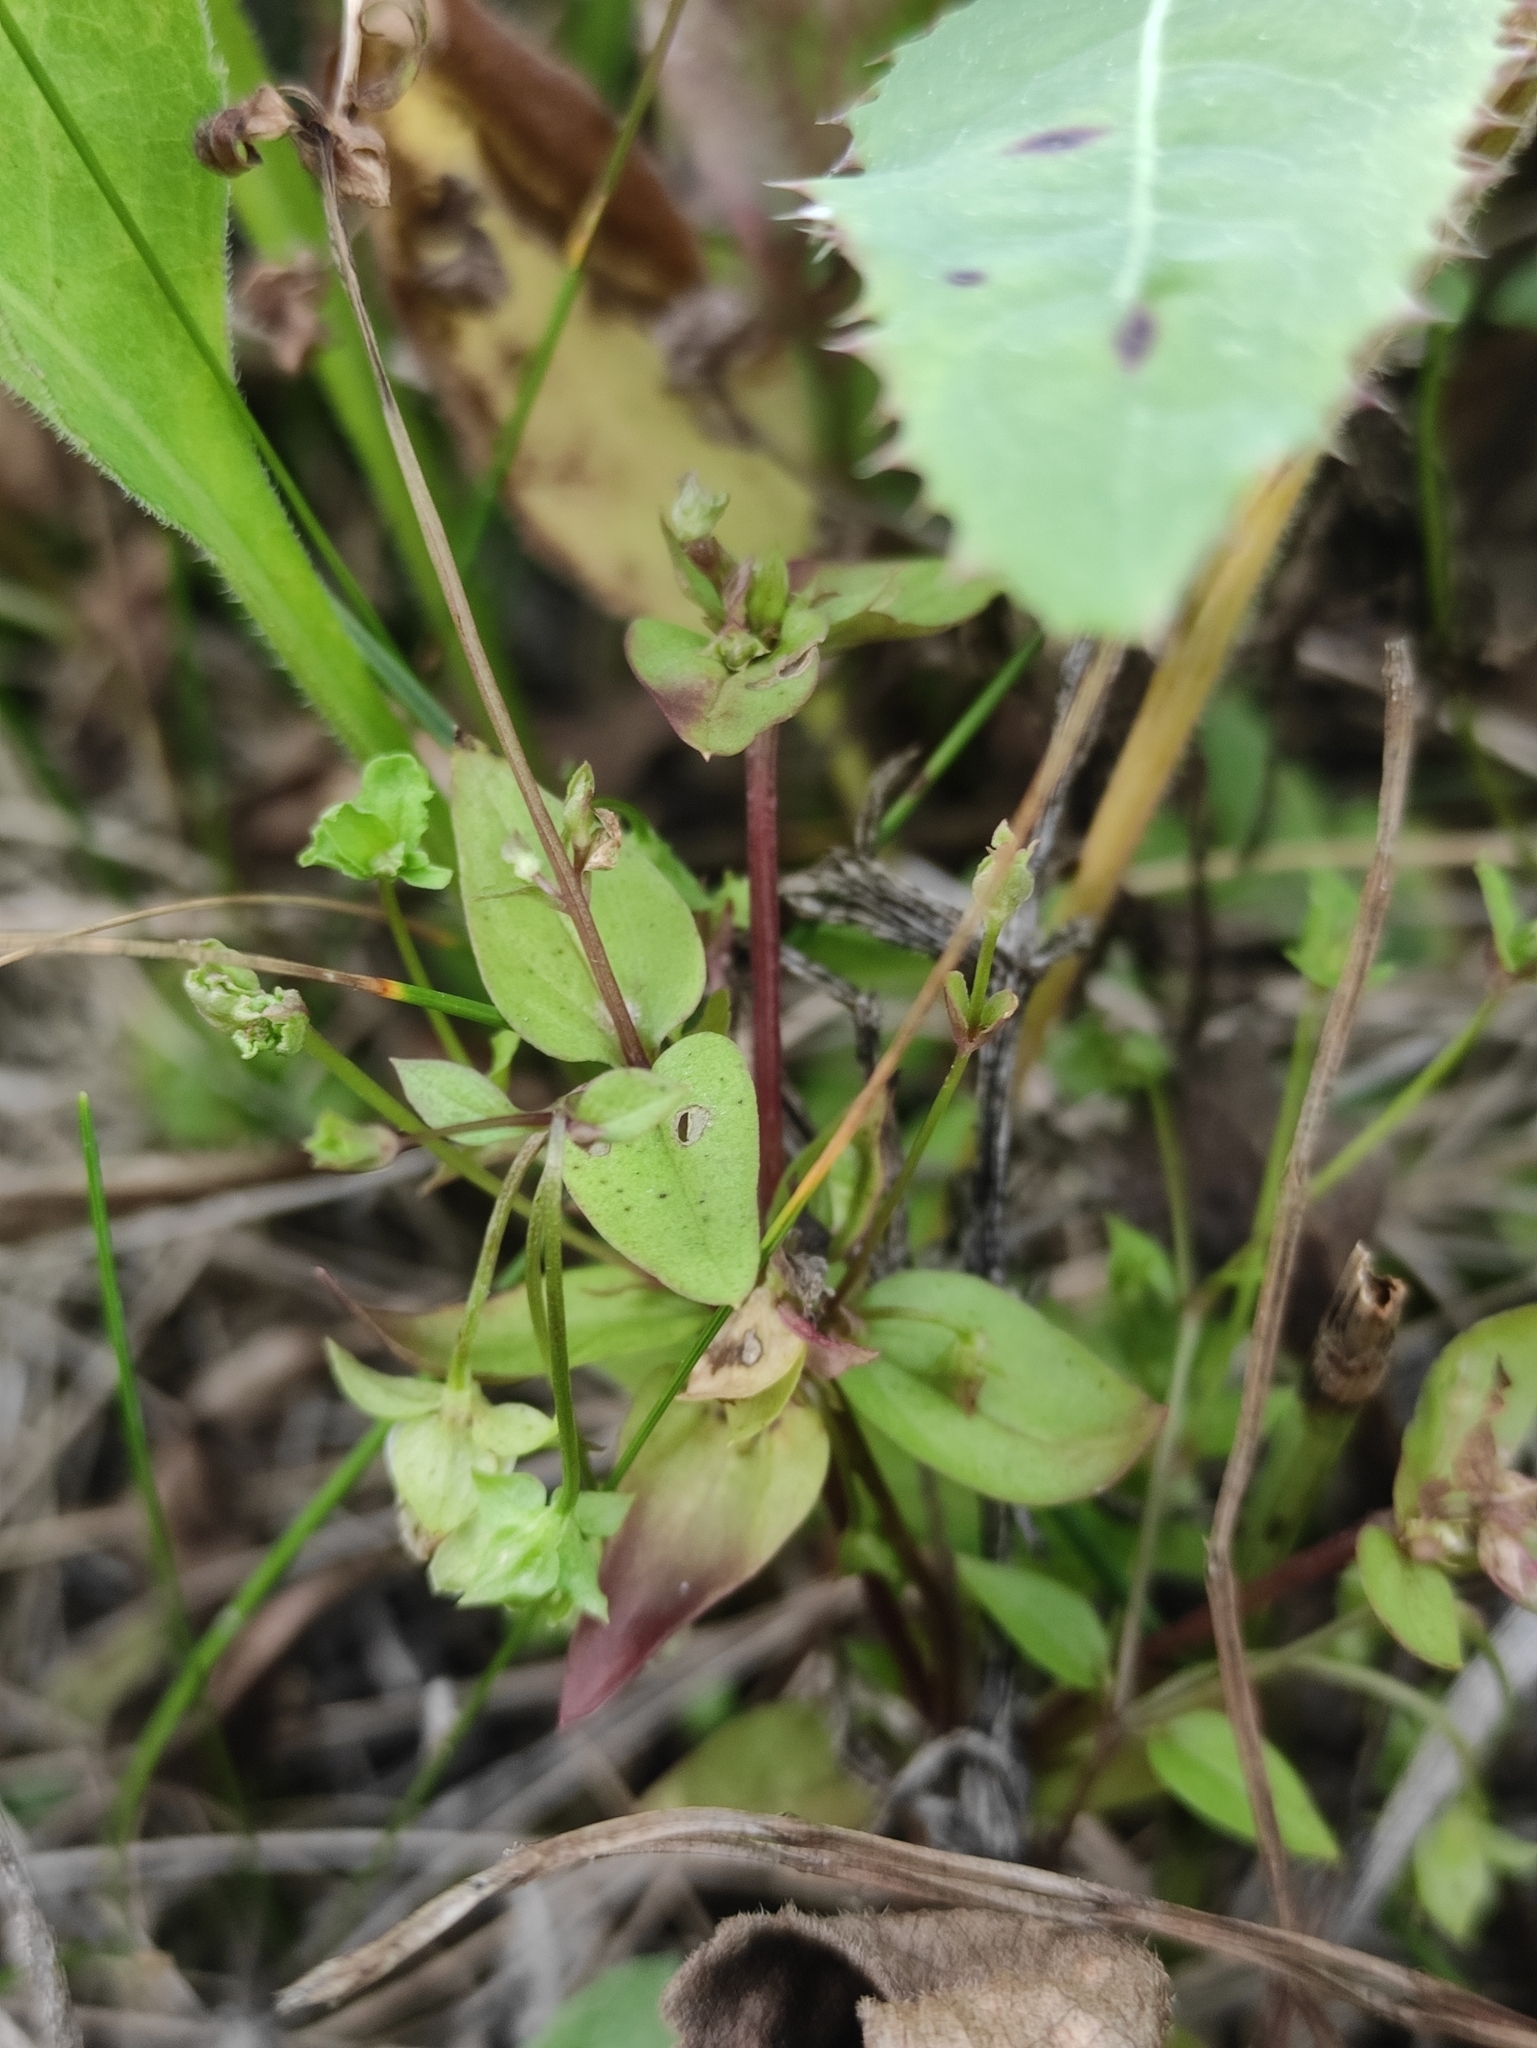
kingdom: Plantae
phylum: Tracheophyta
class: Magnoliopsida
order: Gentianales
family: Gentianaceae
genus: Swertia
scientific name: Swertia dichotoma
